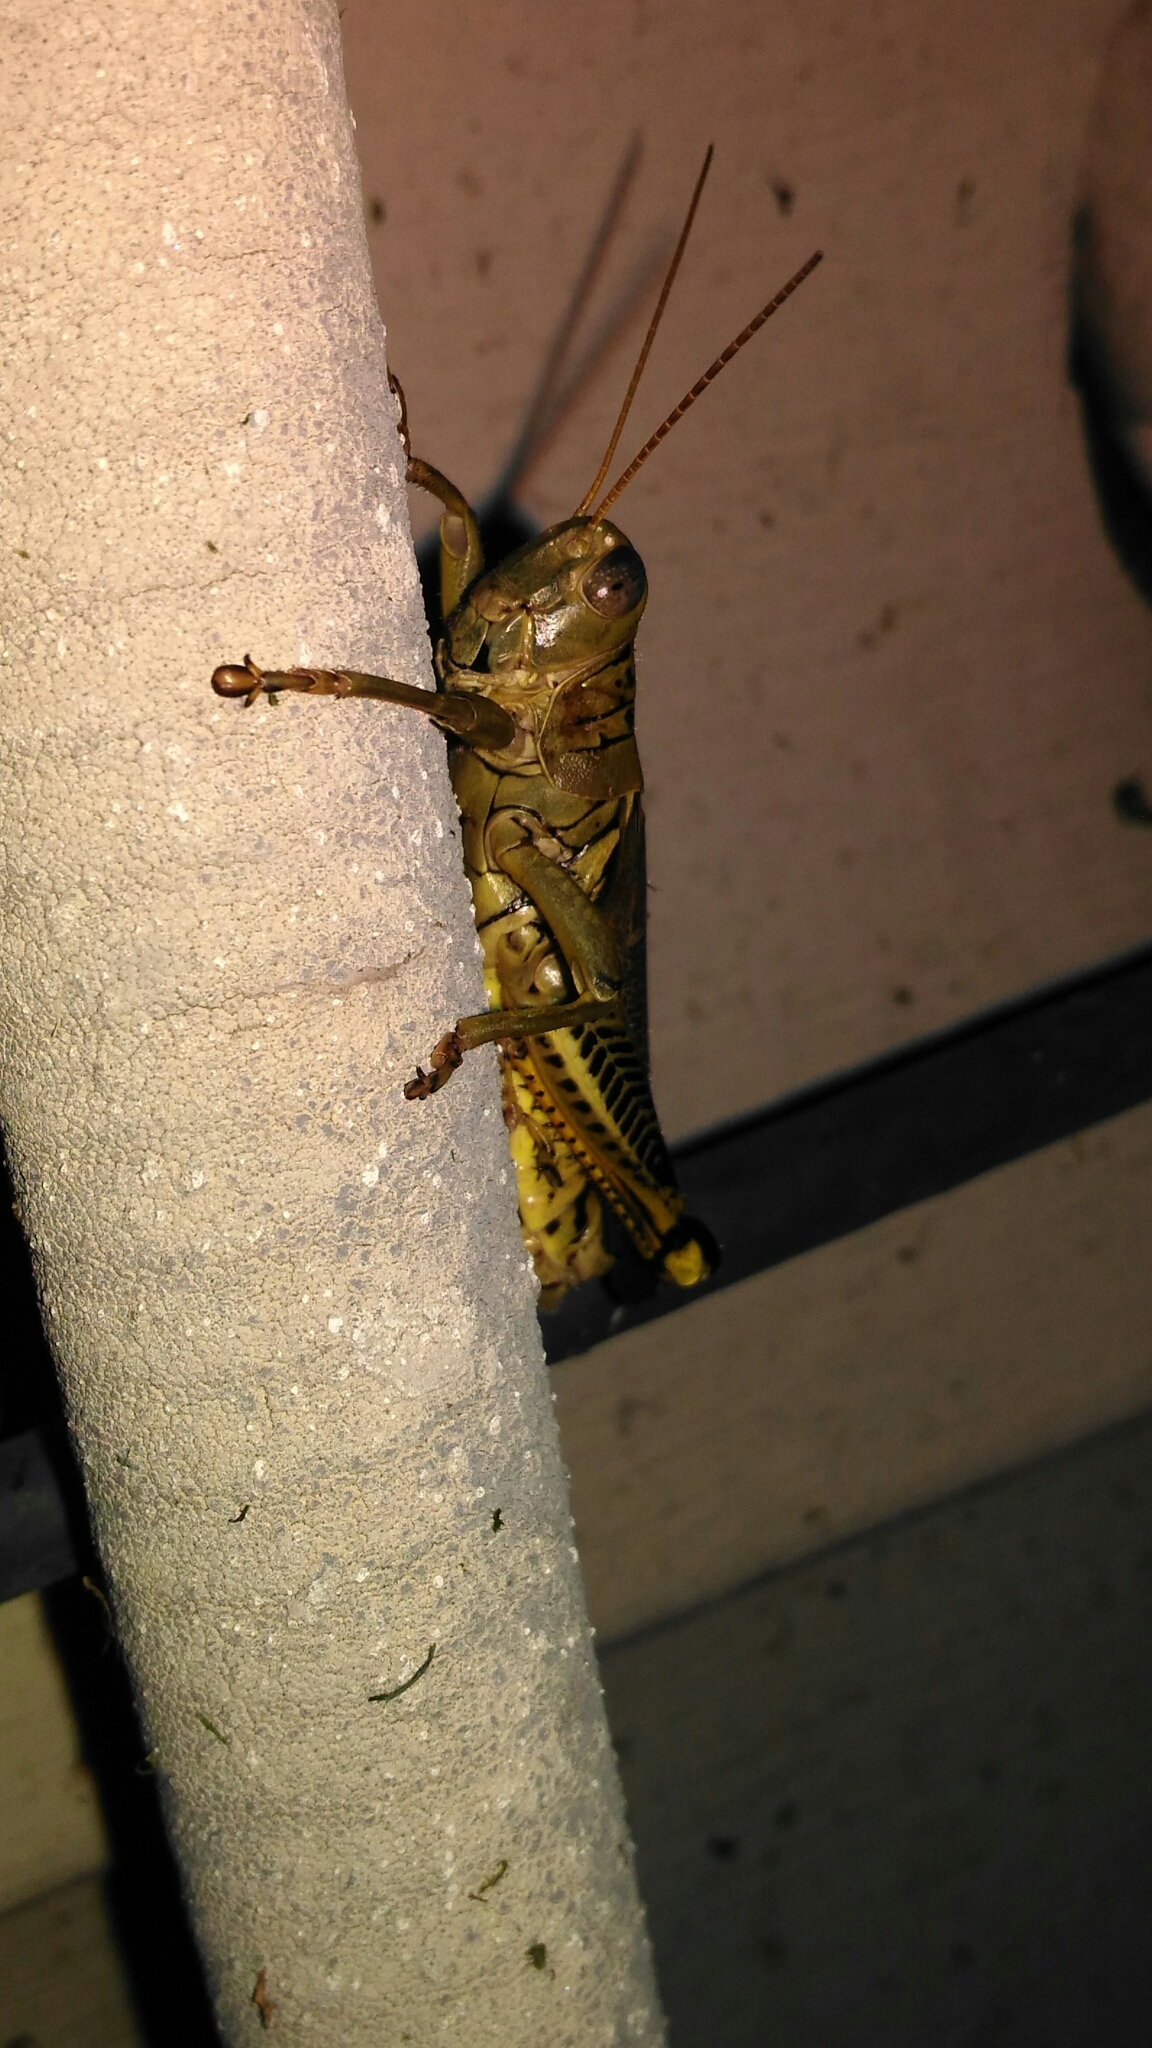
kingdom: Animalia
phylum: Arthropoda
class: Insecta
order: Orthoptera
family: Acrididae
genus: Melanoplus
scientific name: Melanoplus differentialis
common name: Differential grasshopper
